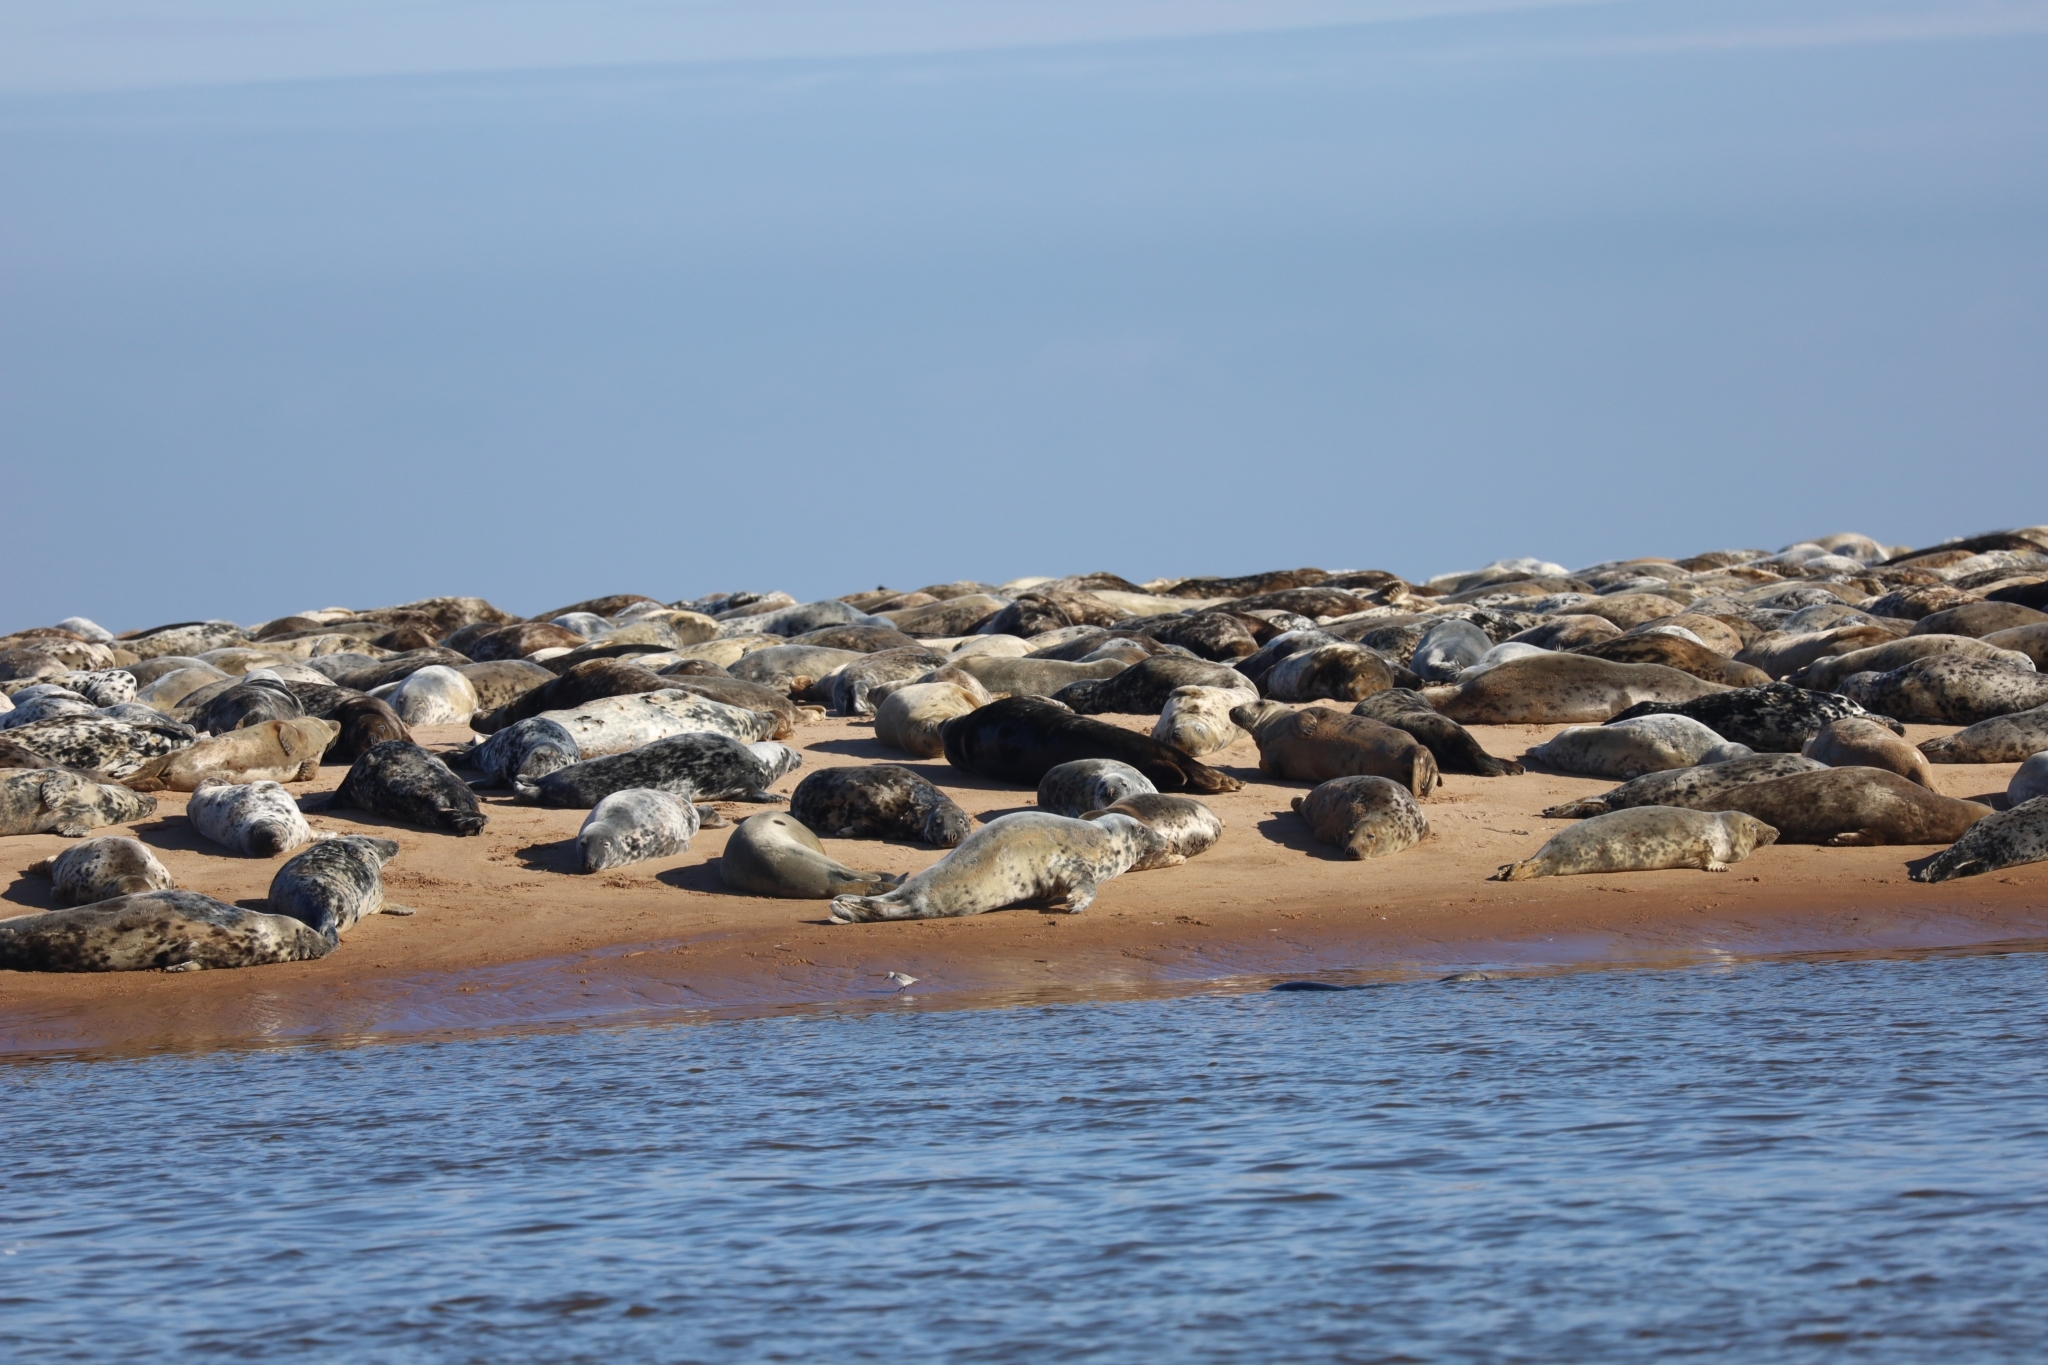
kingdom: Animalia
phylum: Chordata
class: Mammalia
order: Carnivora
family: Phocidae
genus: Halichoerus
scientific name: Halichoerus grypus
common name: Grey seal
